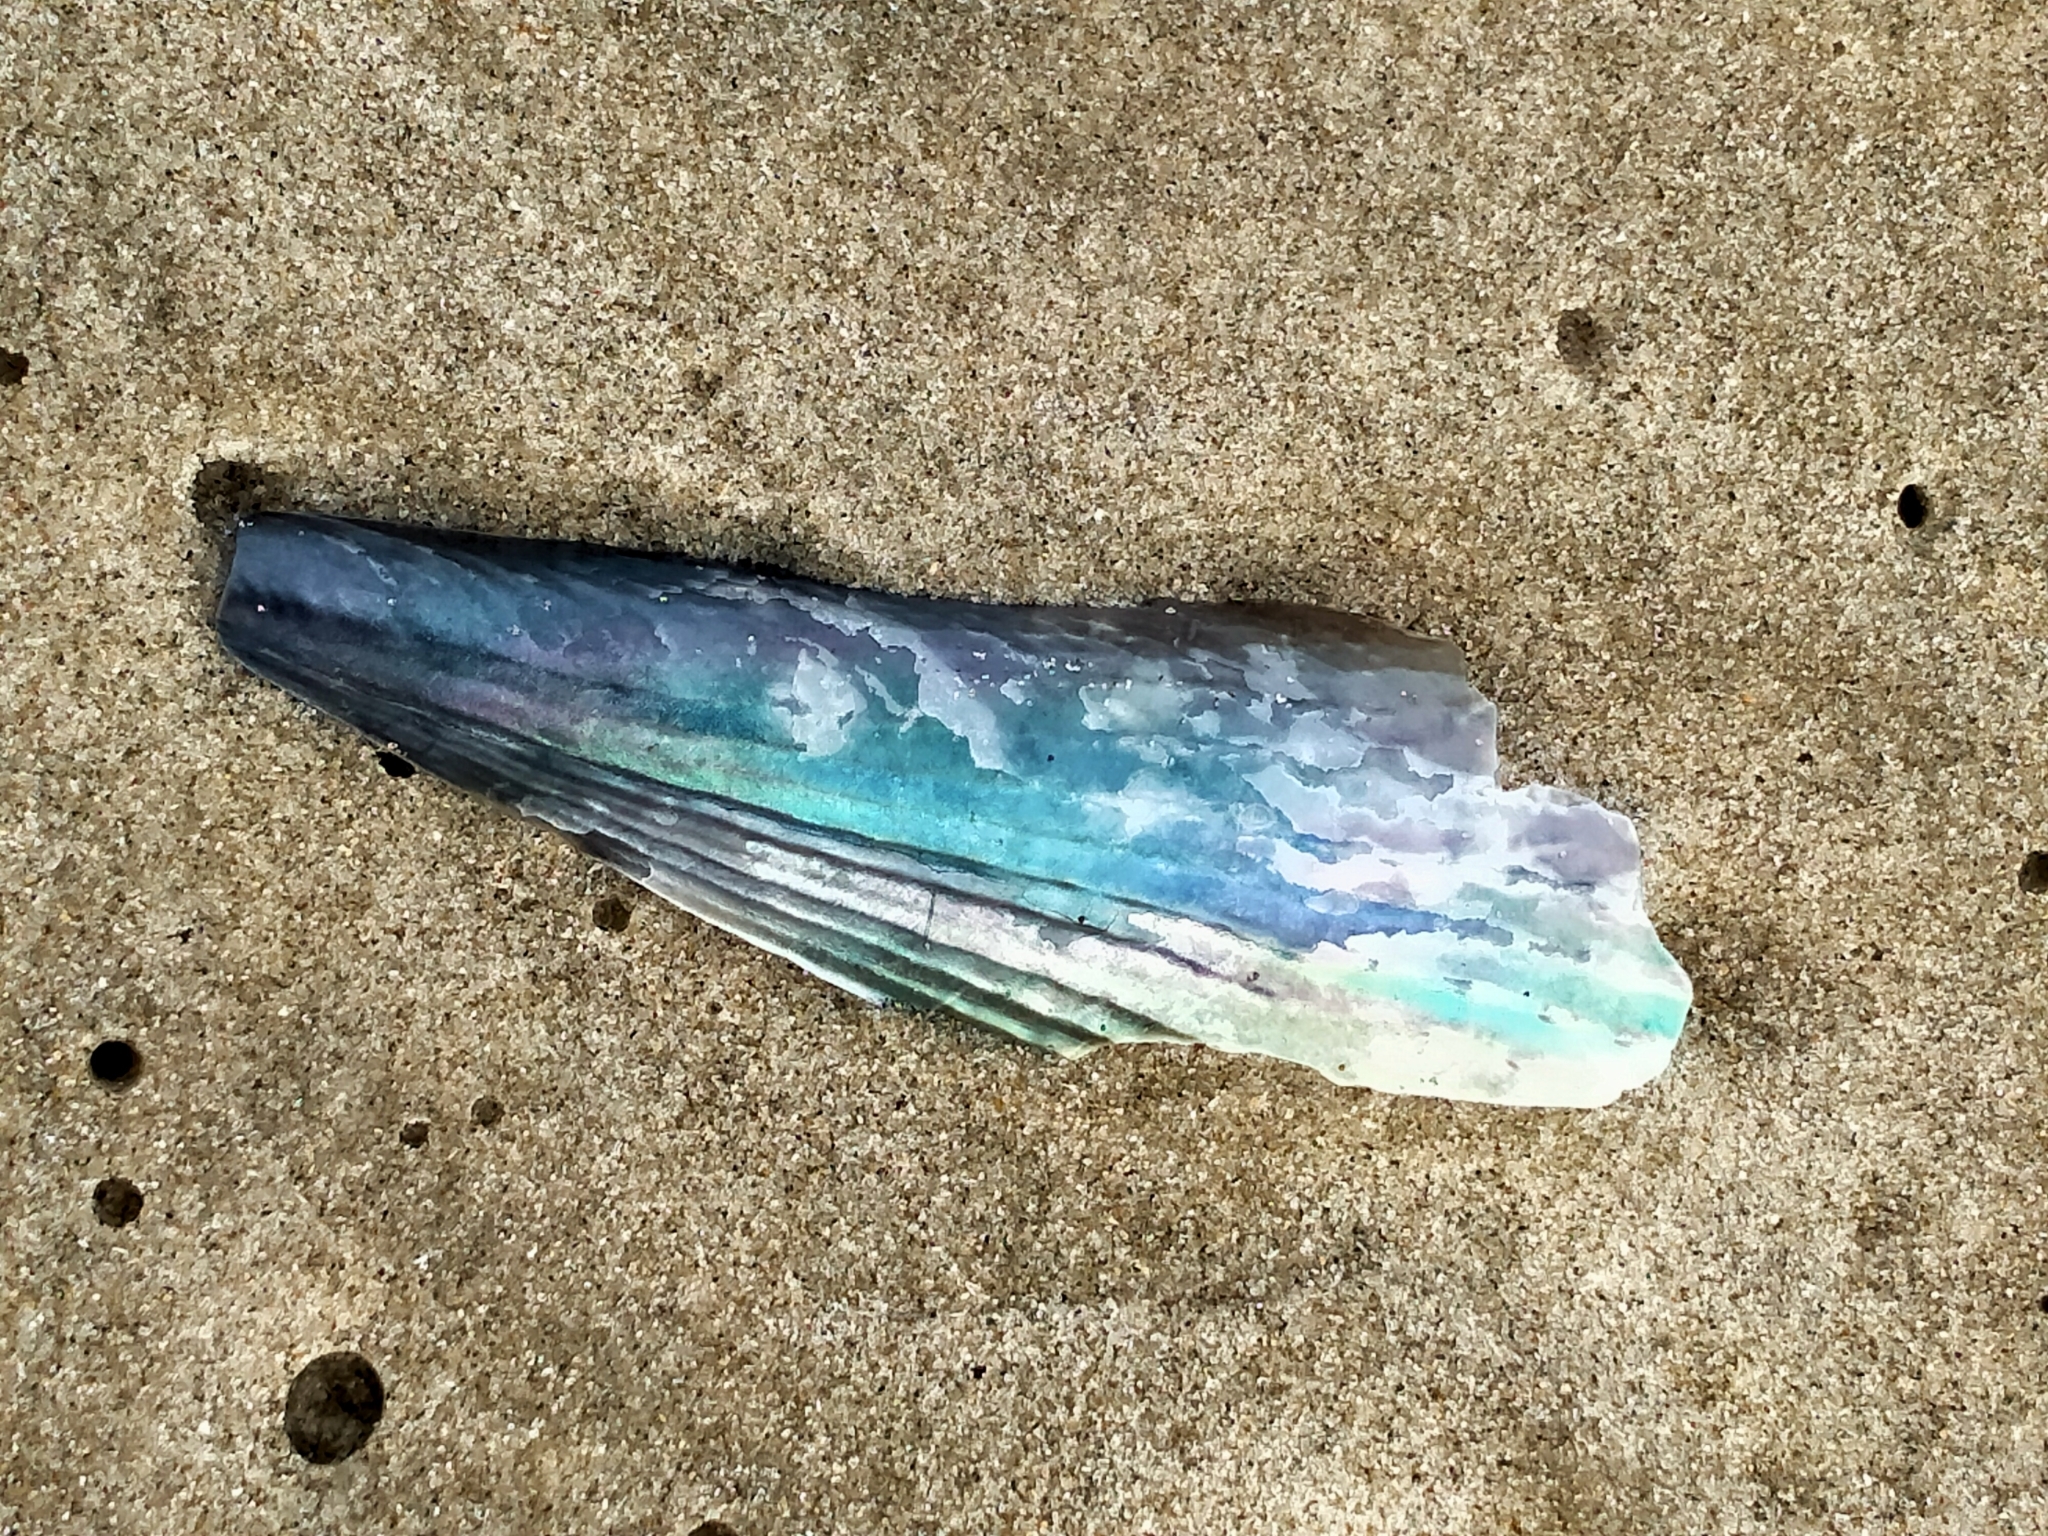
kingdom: Animalia
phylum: Mollusca
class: Bivalvia
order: Ostreida
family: Pinnidae
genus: Atrina
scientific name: Atrina zelandica
